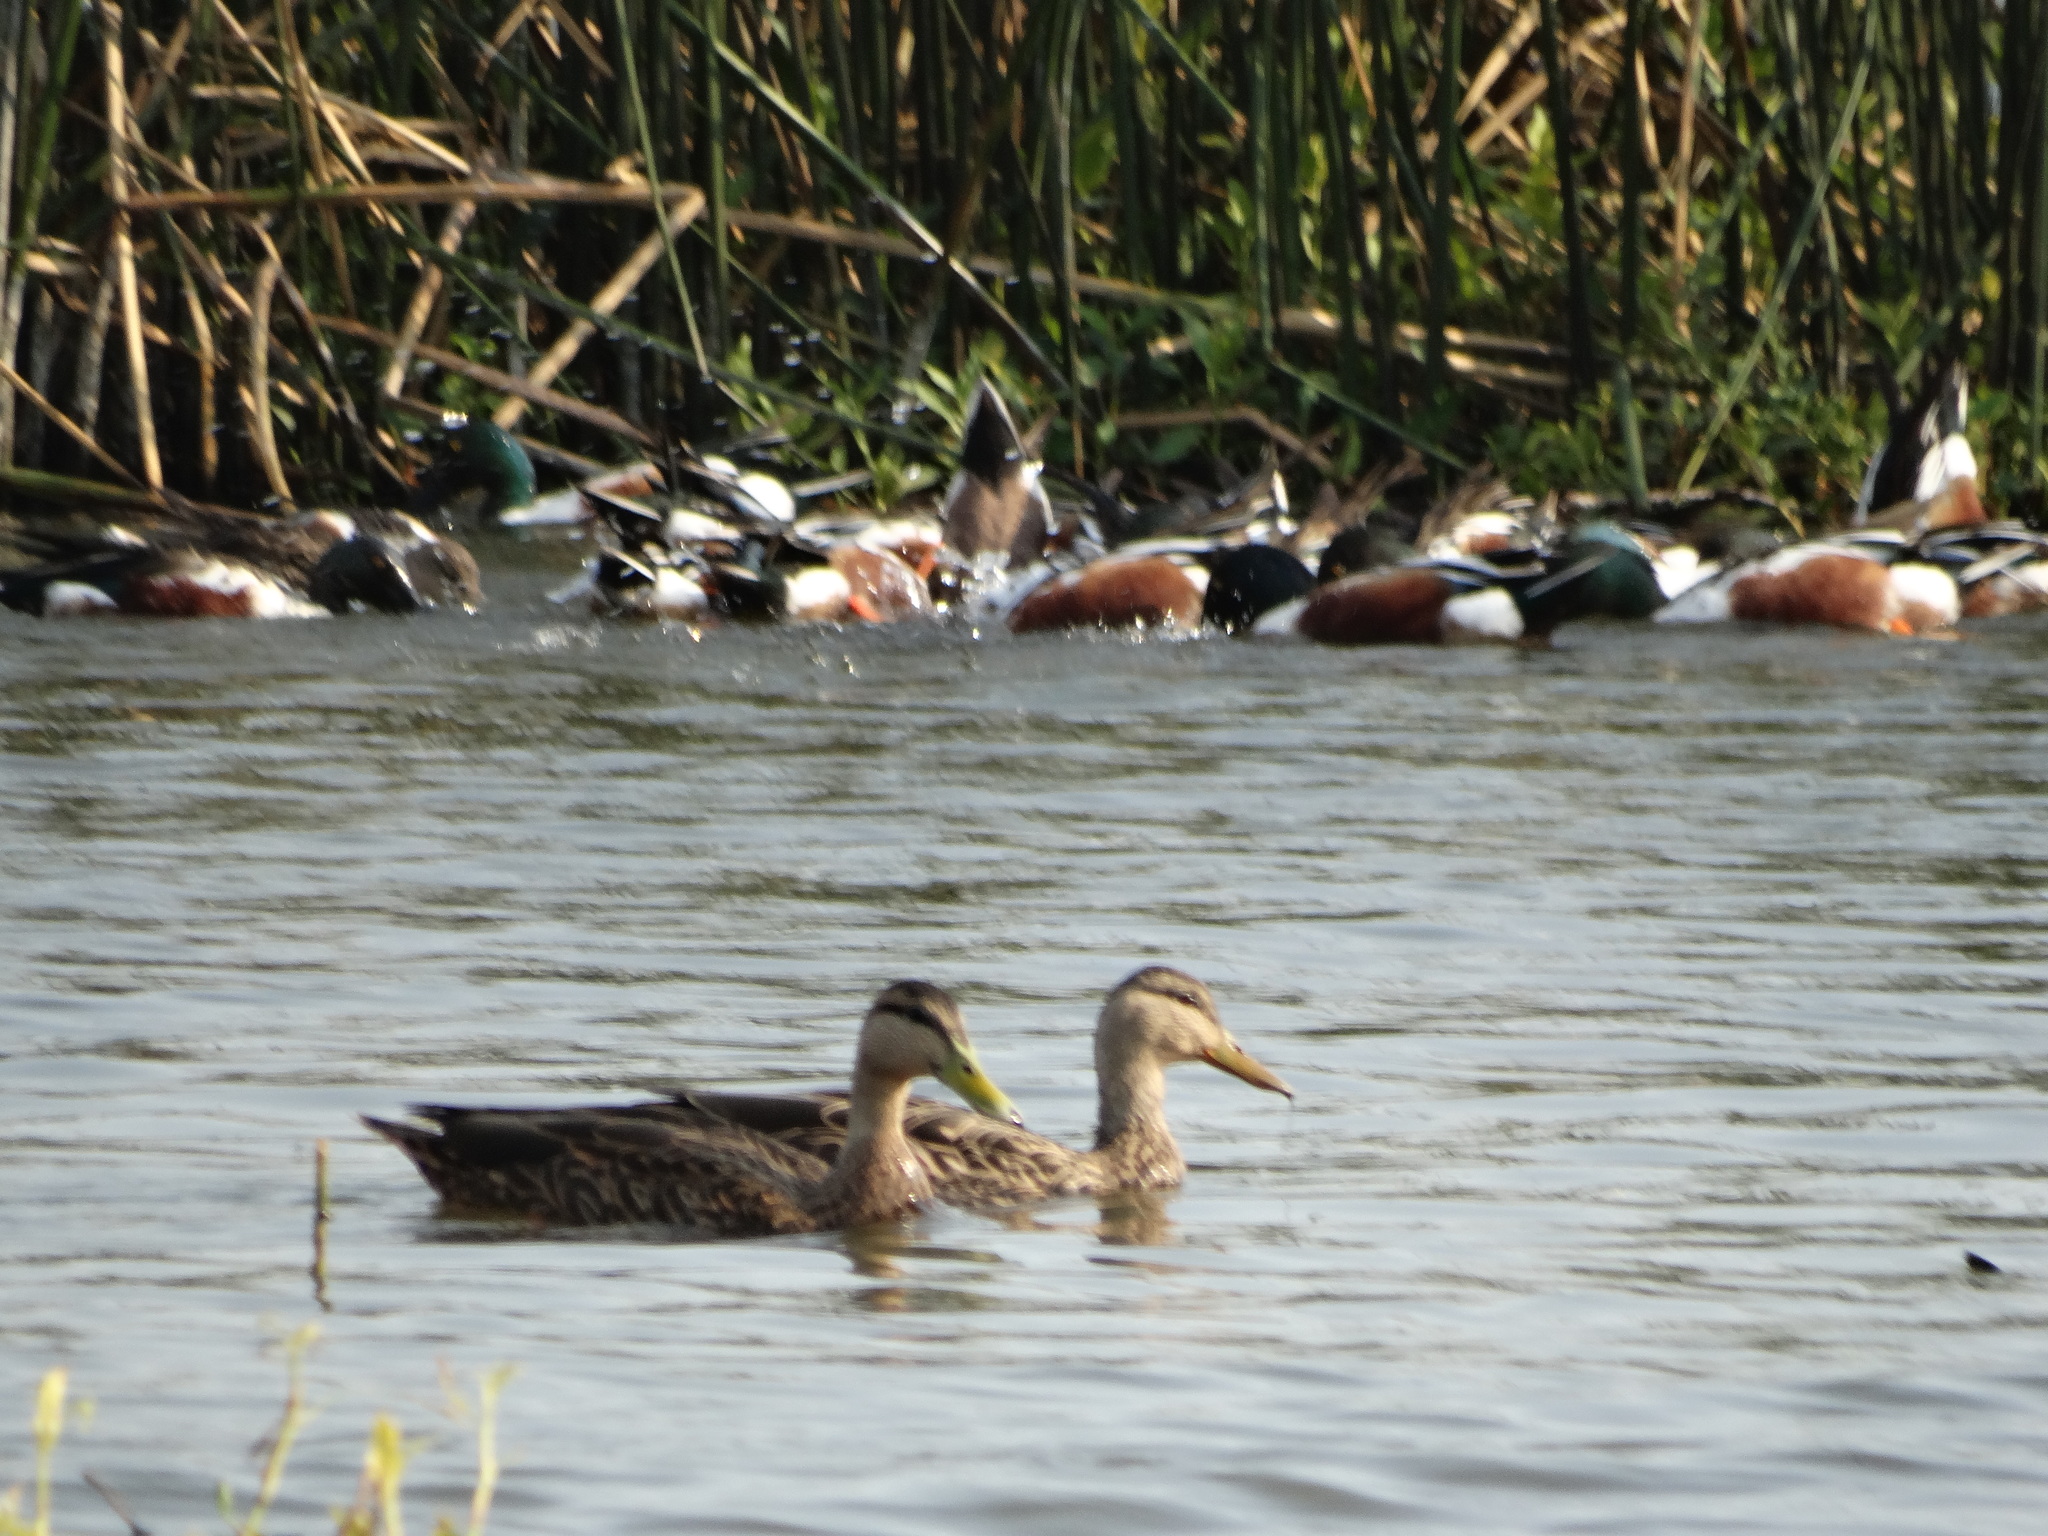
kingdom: Animalia
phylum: Chordata
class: Aves
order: Anseriformes
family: Anatidae
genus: Anas
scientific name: Anas diazi
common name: Mexican duck
